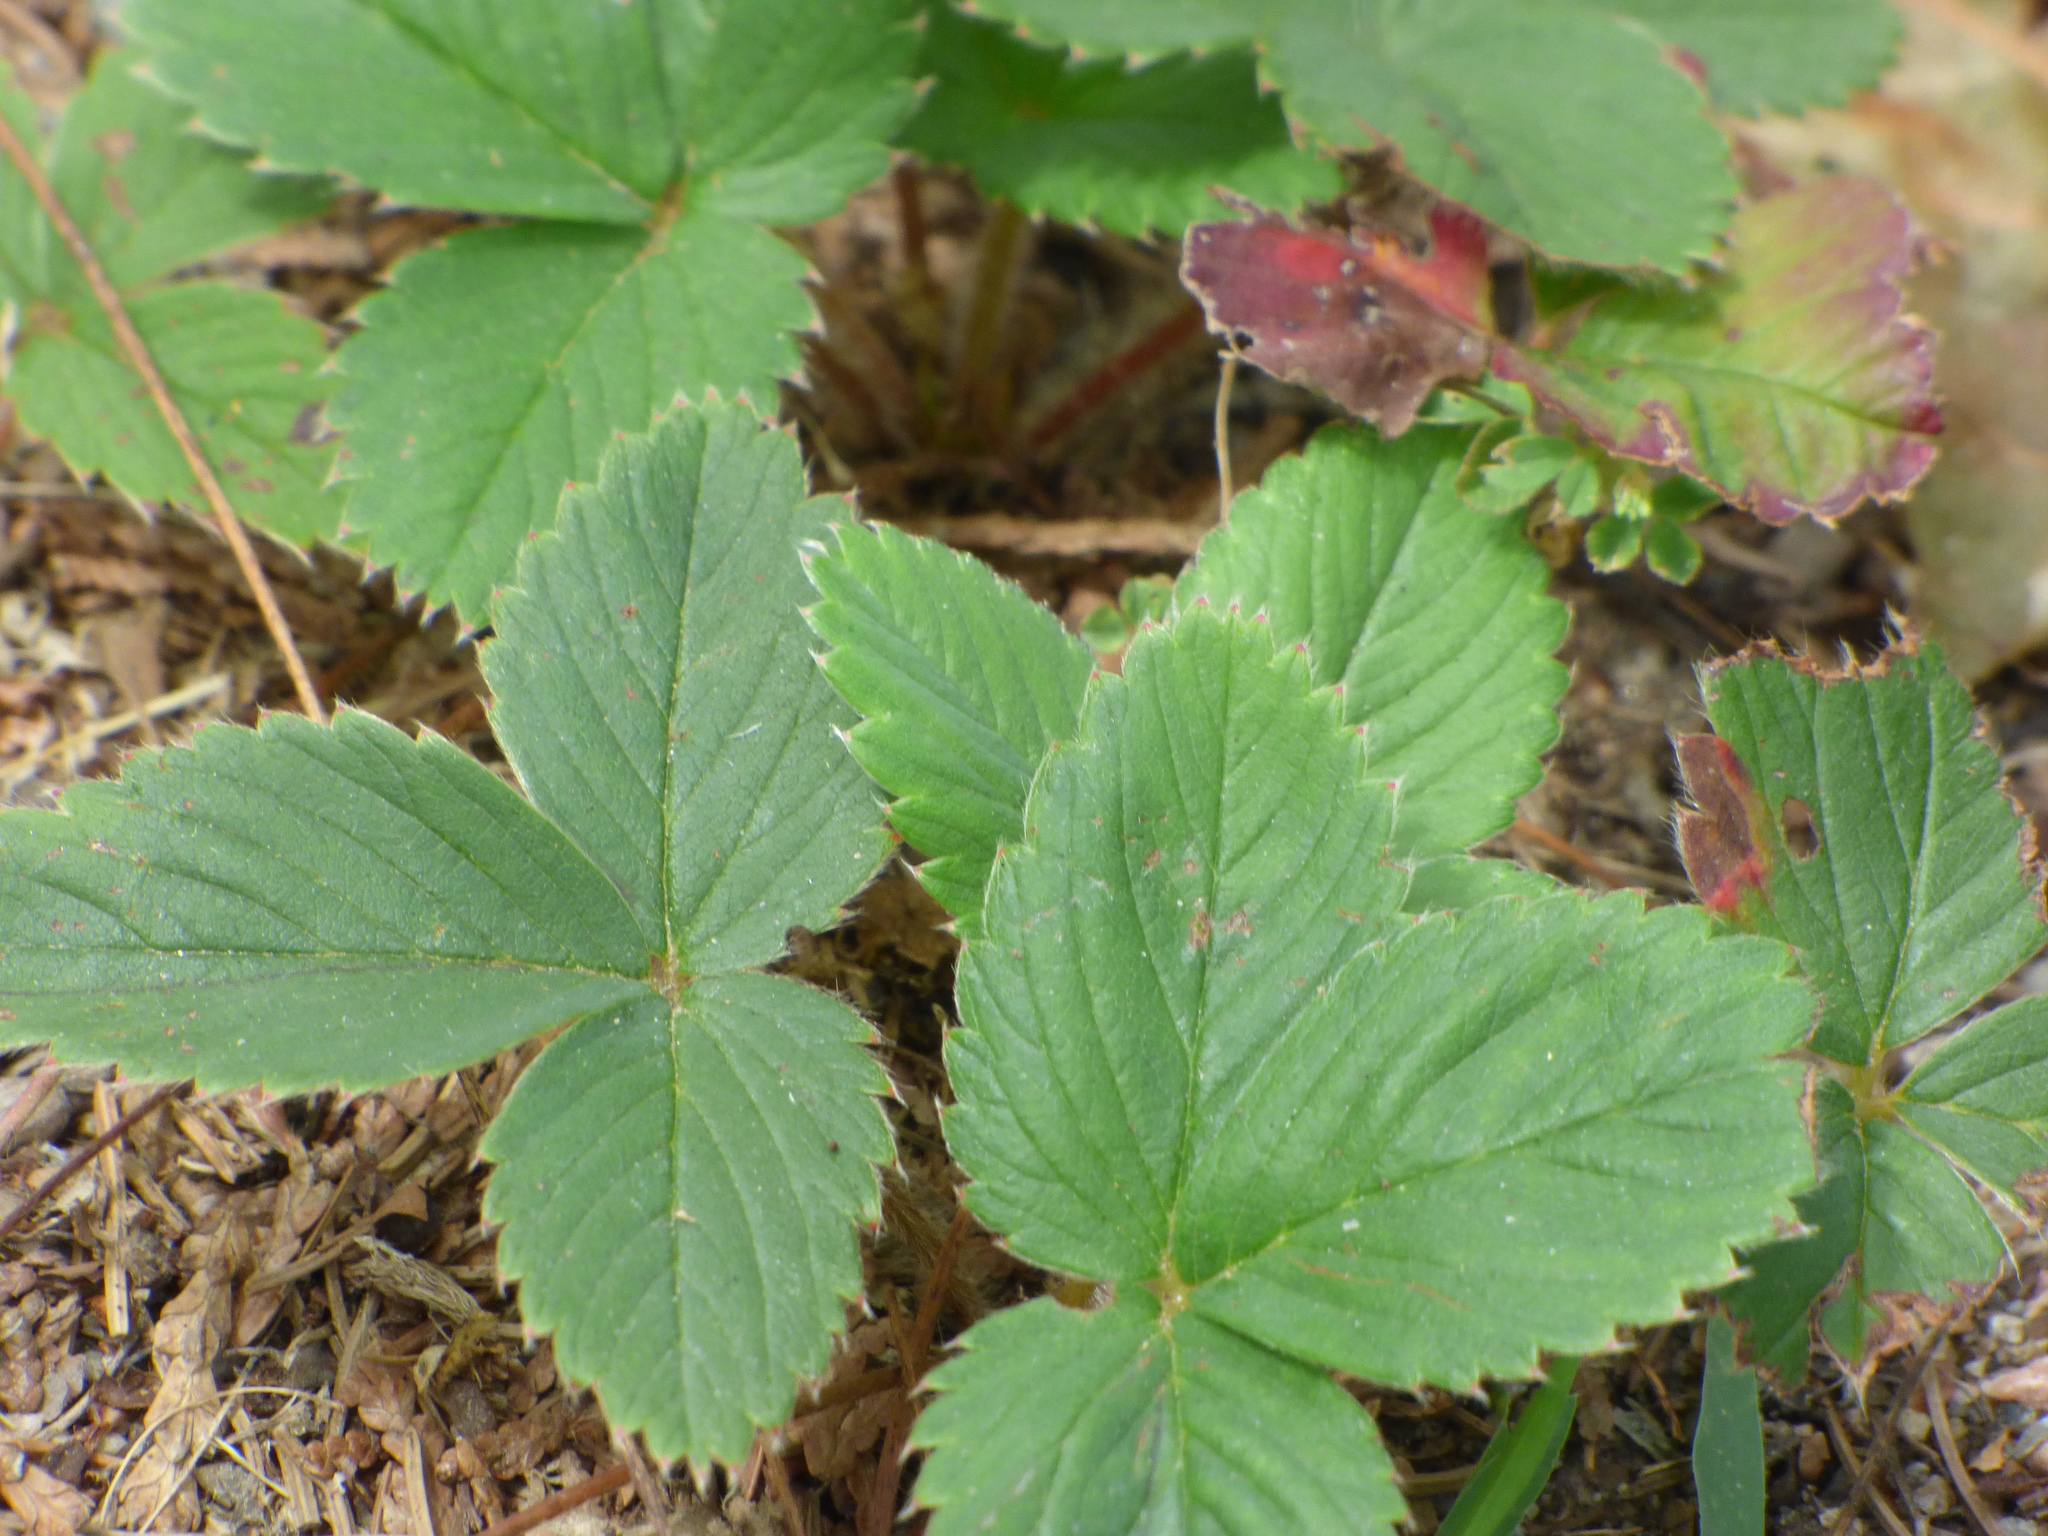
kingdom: Plantae
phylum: Tracheophyta
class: Magnoliopsida
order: Rosales
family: Rosaceae
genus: Fragaria
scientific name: Fragaria virginiana
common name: Thickleaved wild strawberry
